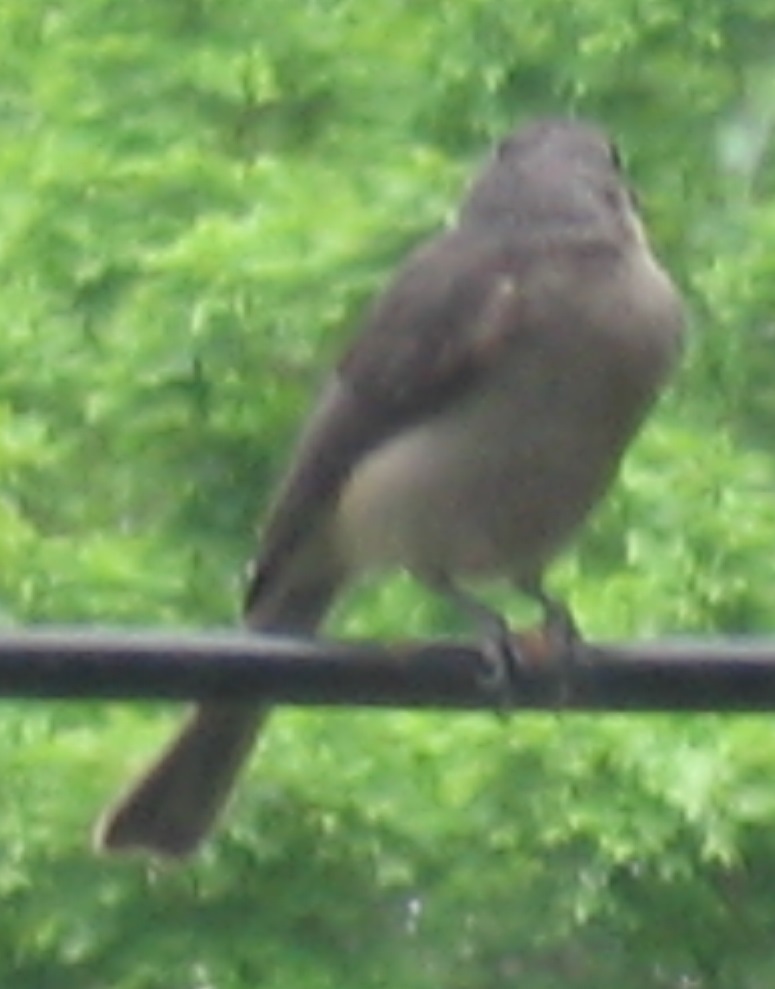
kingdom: Animalia
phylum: Chordata
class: Aves
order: Passeriformes
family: Paridae
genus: Baeolophus
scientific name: Baeolophus bicolor
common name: Tufted titmouse
